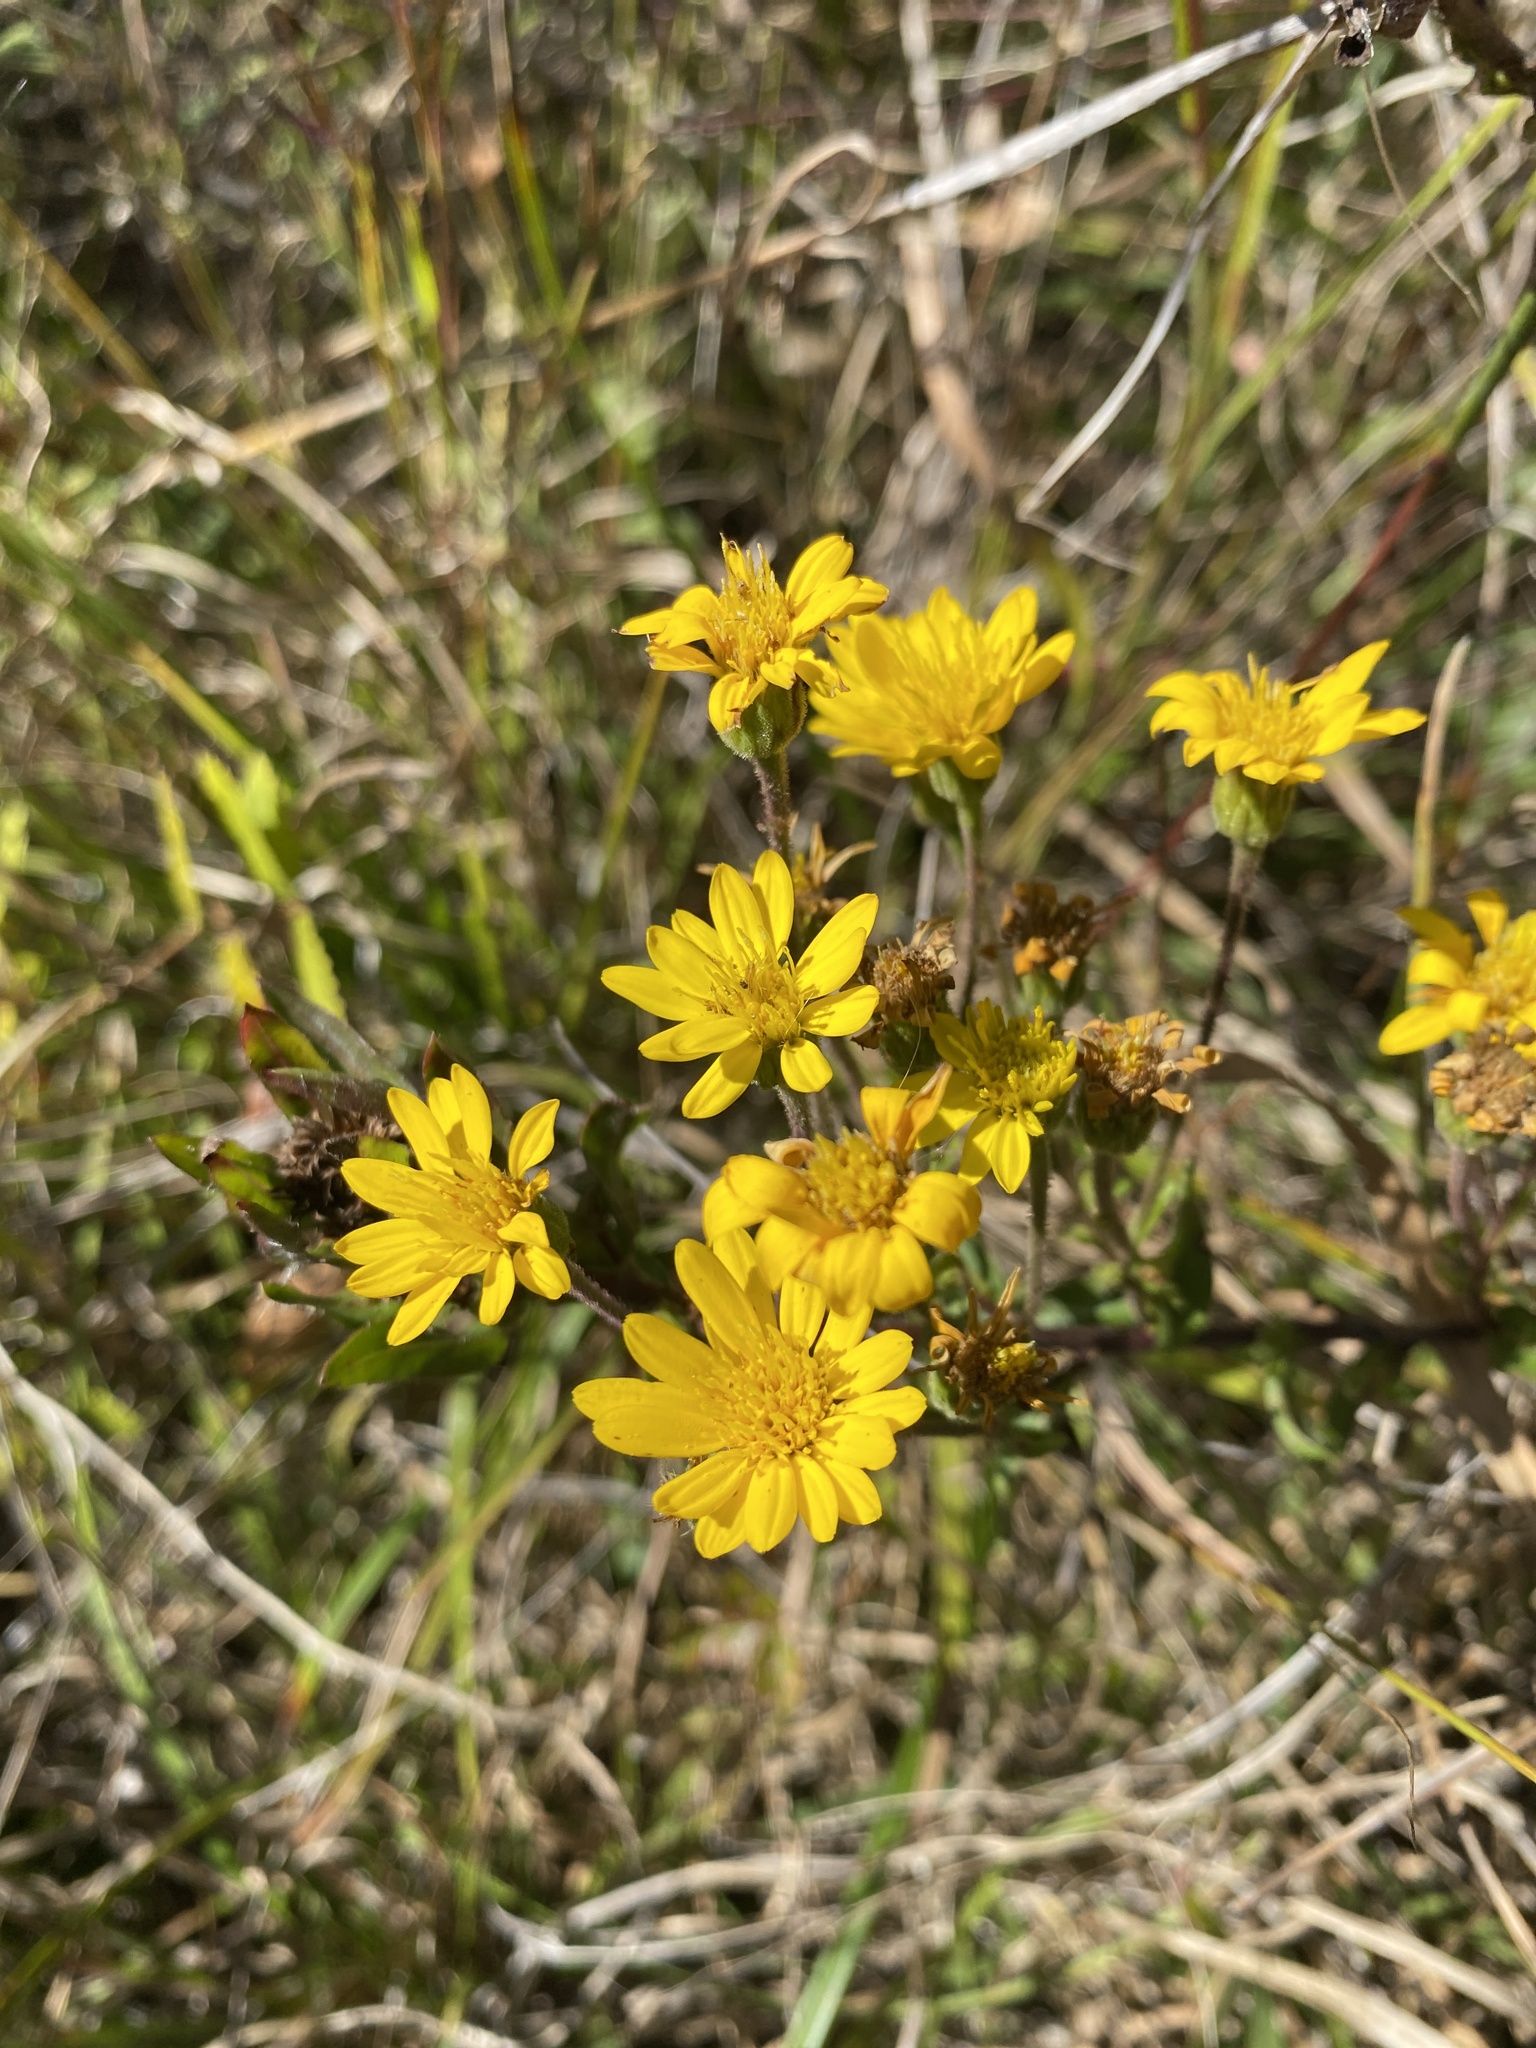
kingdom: Plantae
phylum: Tracheophyta
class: Magnoliopsida
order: Asterales
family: Asteraceae
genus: Chrysopsis
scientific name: Chrysopsis mariana
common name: Maryland golden-aster
